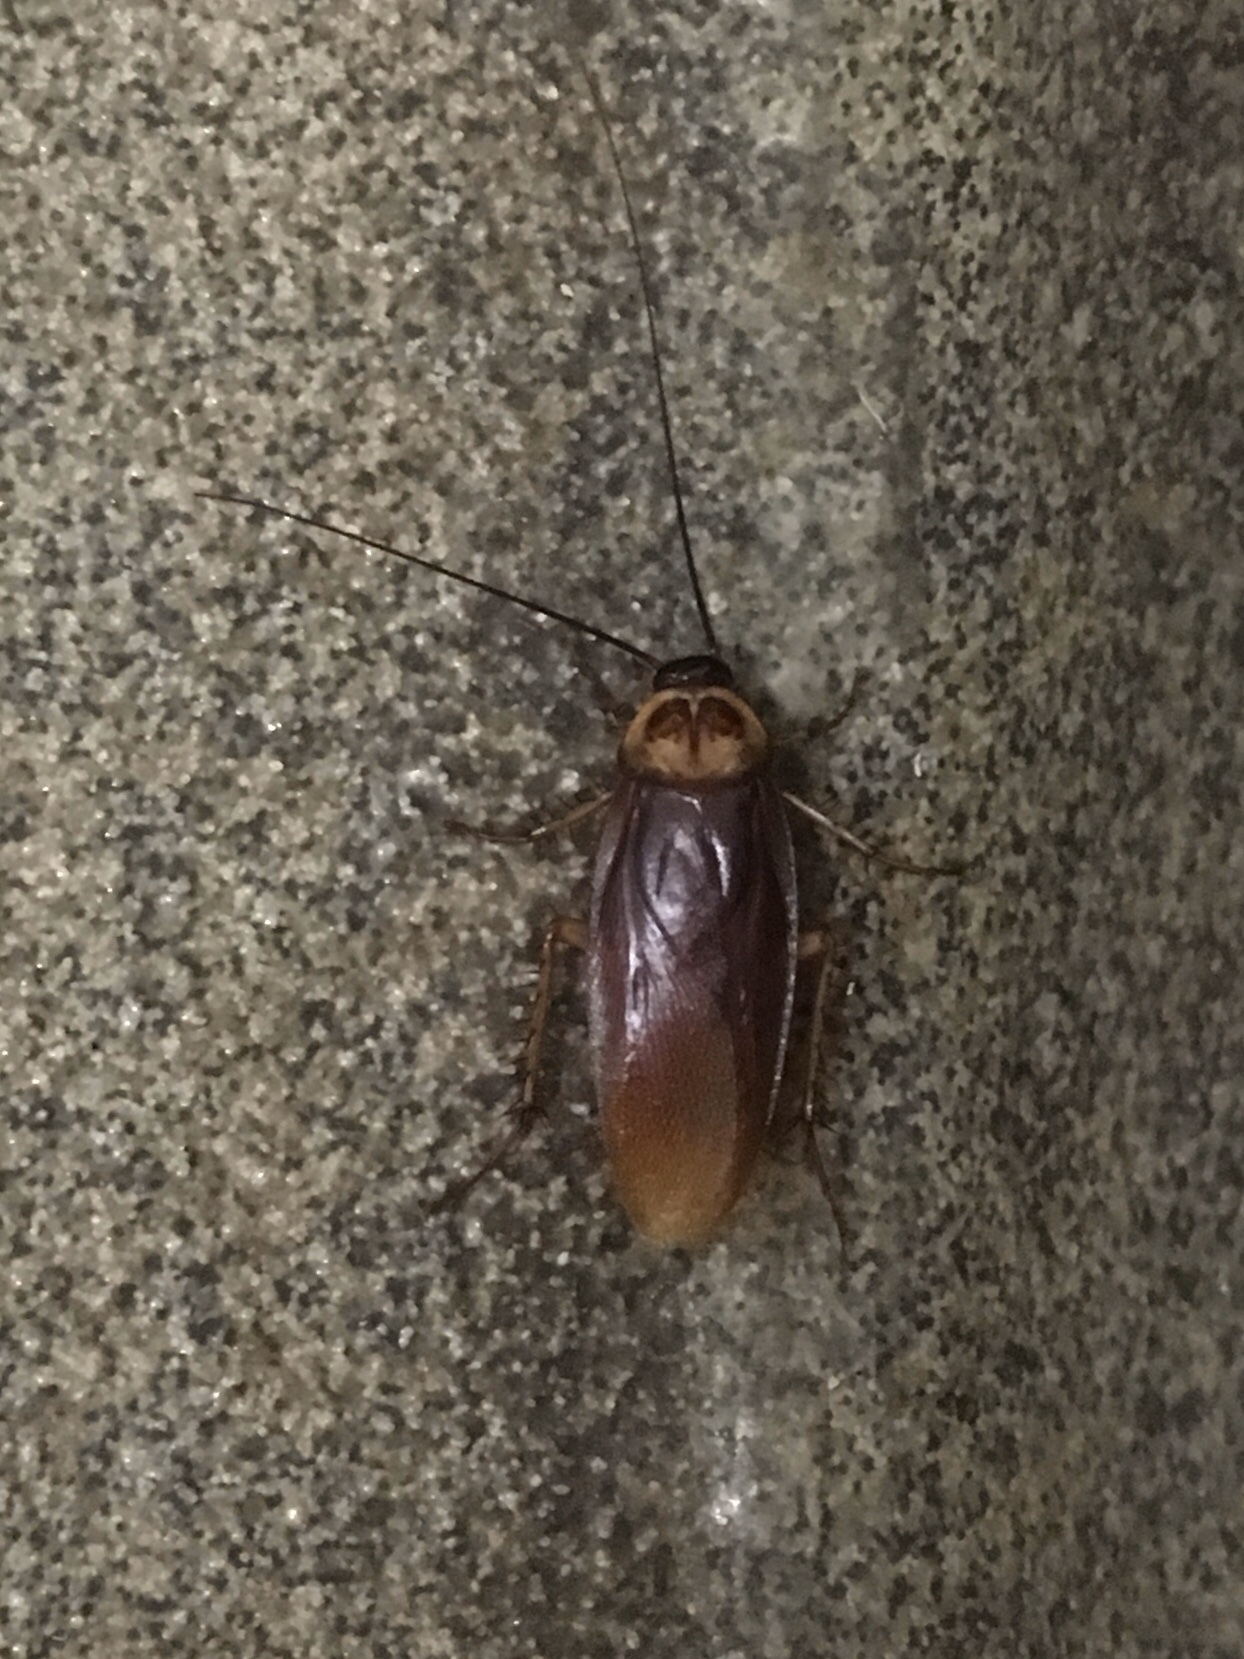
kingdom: Animalia
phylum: Arthropoda
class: Insecta
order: Blattodea
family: Blattidae
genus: Periplaneta
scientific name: Periplaneta americana
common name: American cockroach
